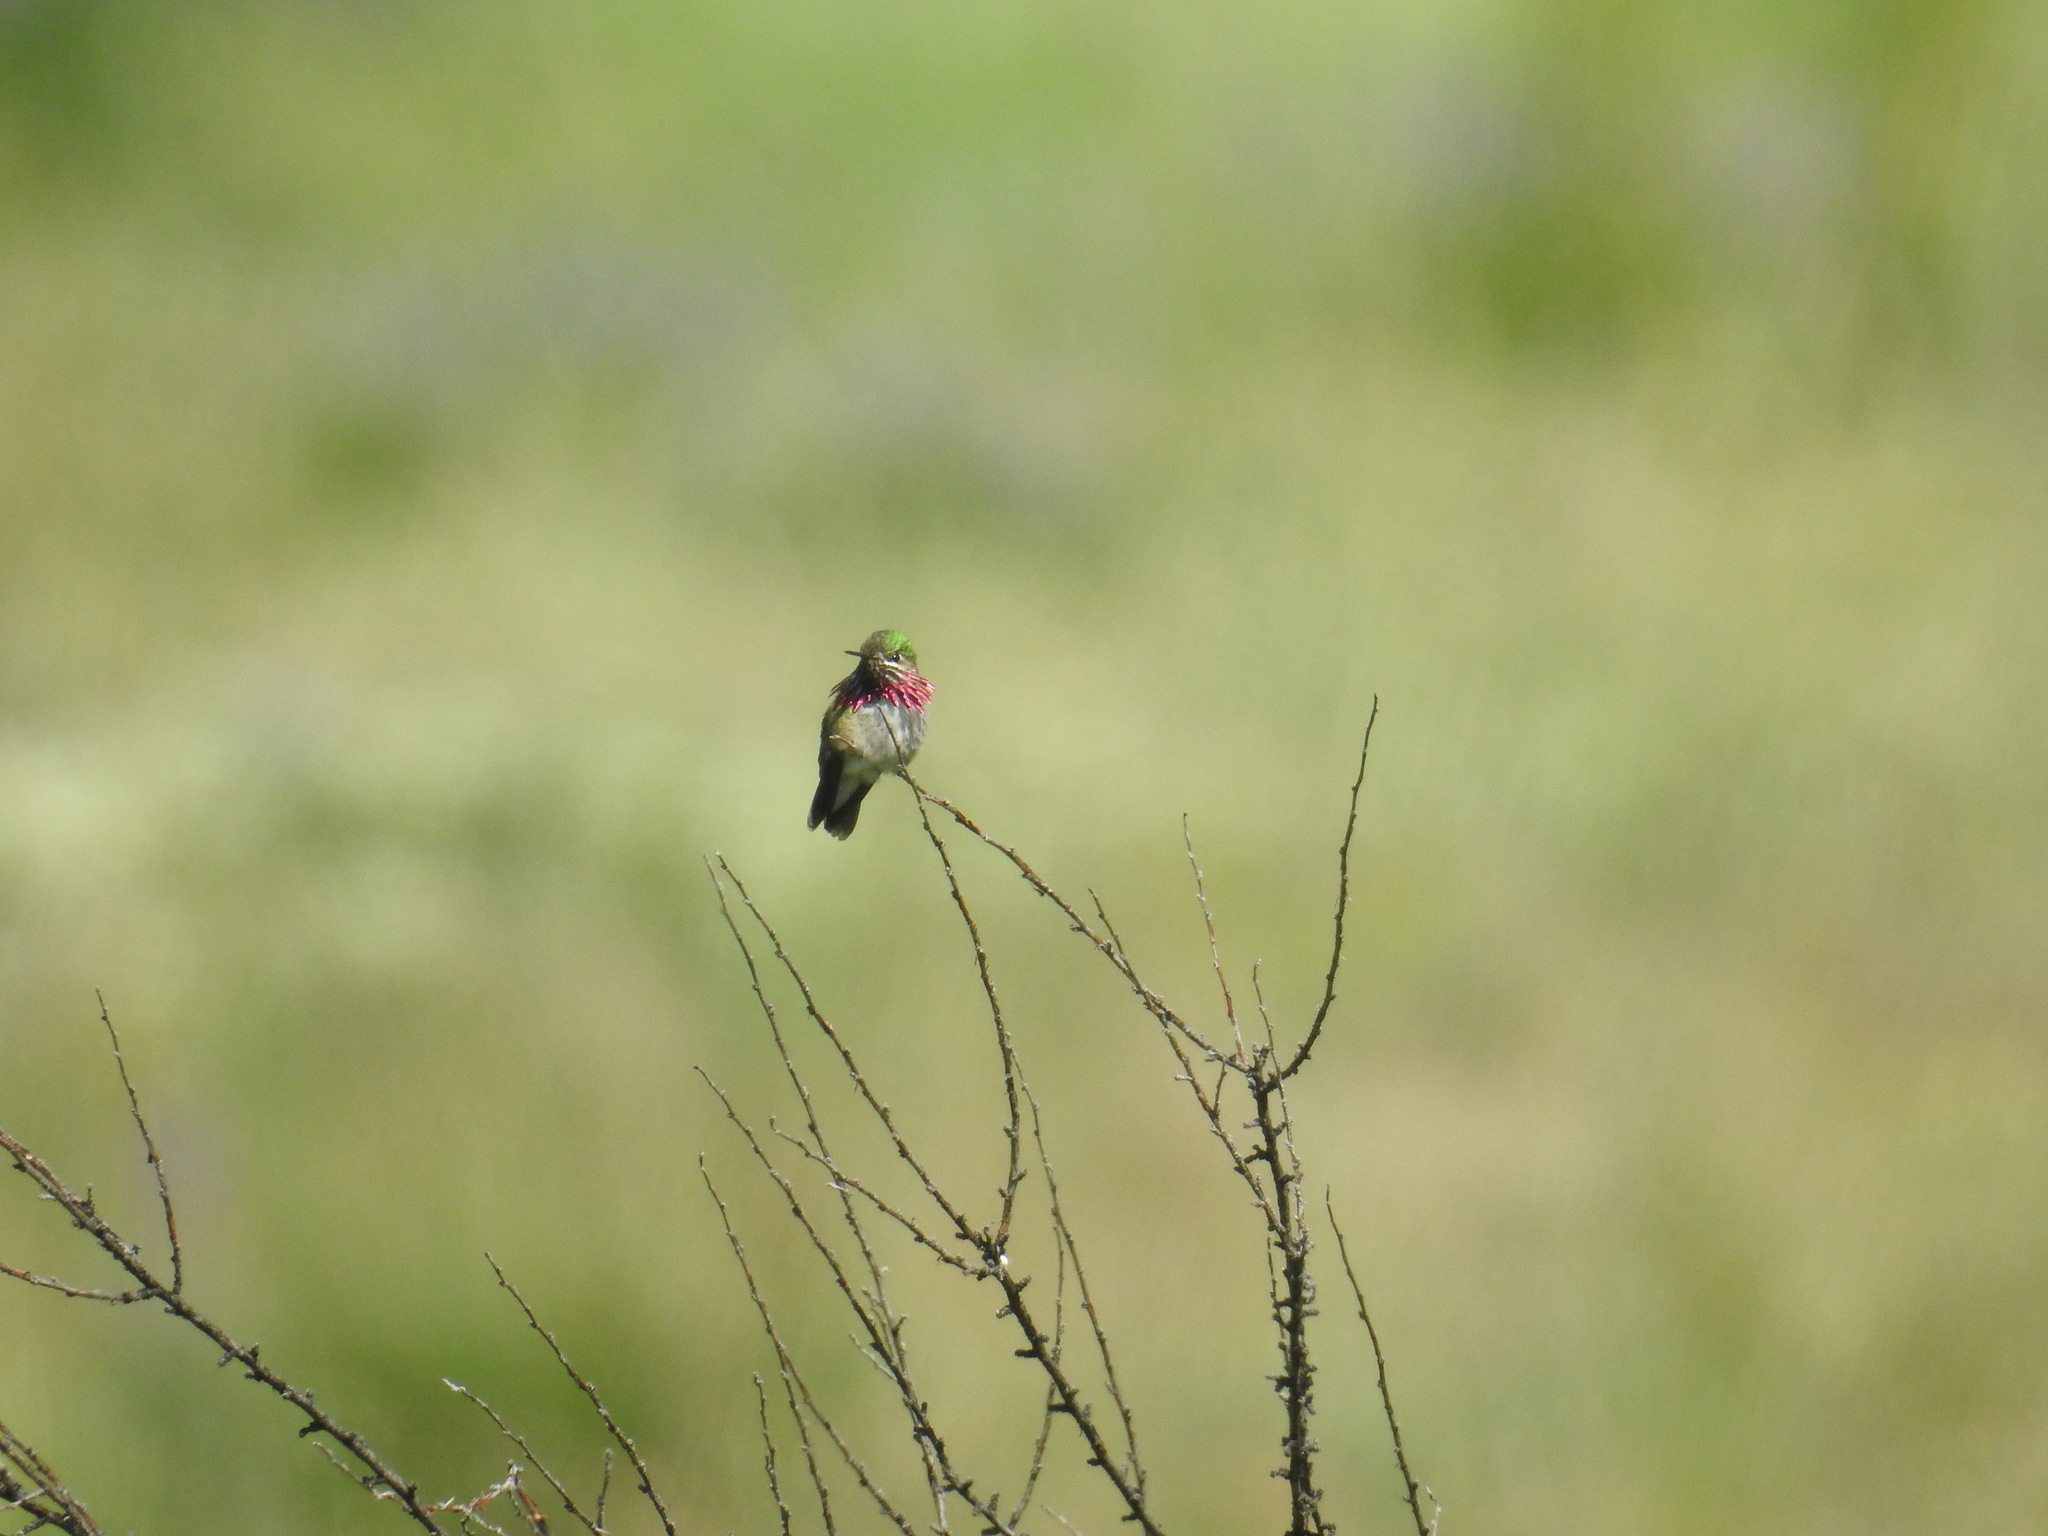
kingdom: Animalia
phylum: Chordata
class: Aves
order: Apodiformes
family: Trochilidae
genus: Selasphorus
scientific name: Selasphorus calliope
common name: Calliope hummingbird
